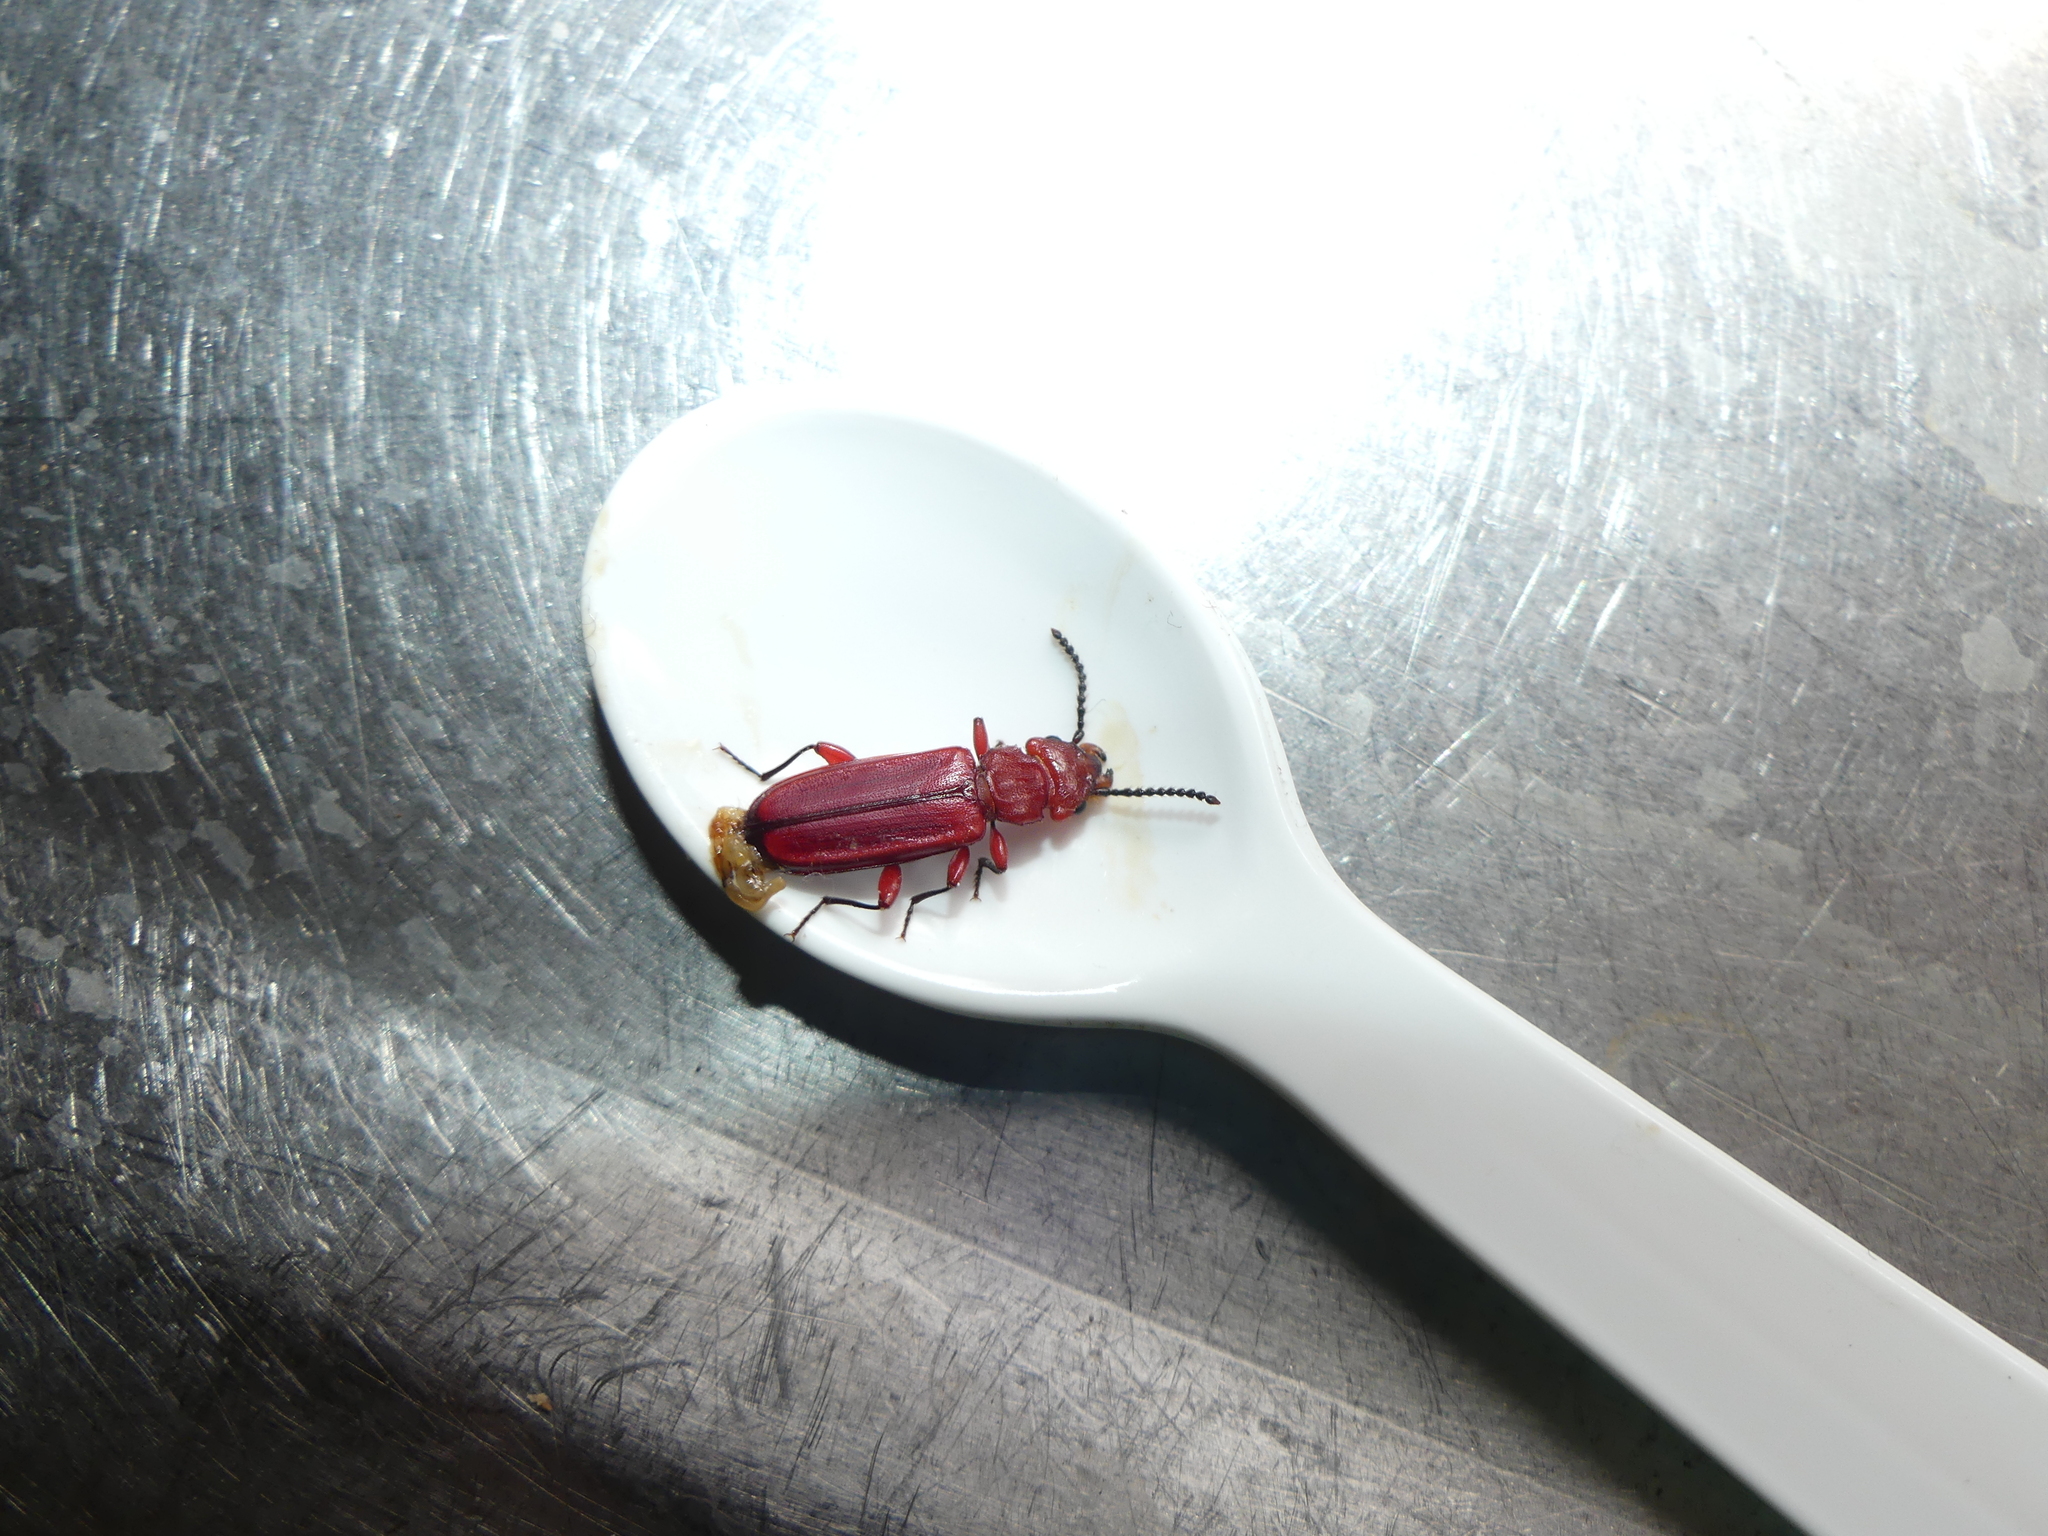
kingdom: Animalia
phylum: Arthropoda
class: Insecta
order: Coleoptera
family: Cucujidae
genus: Cucujus
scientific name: Cucujus clavipes
